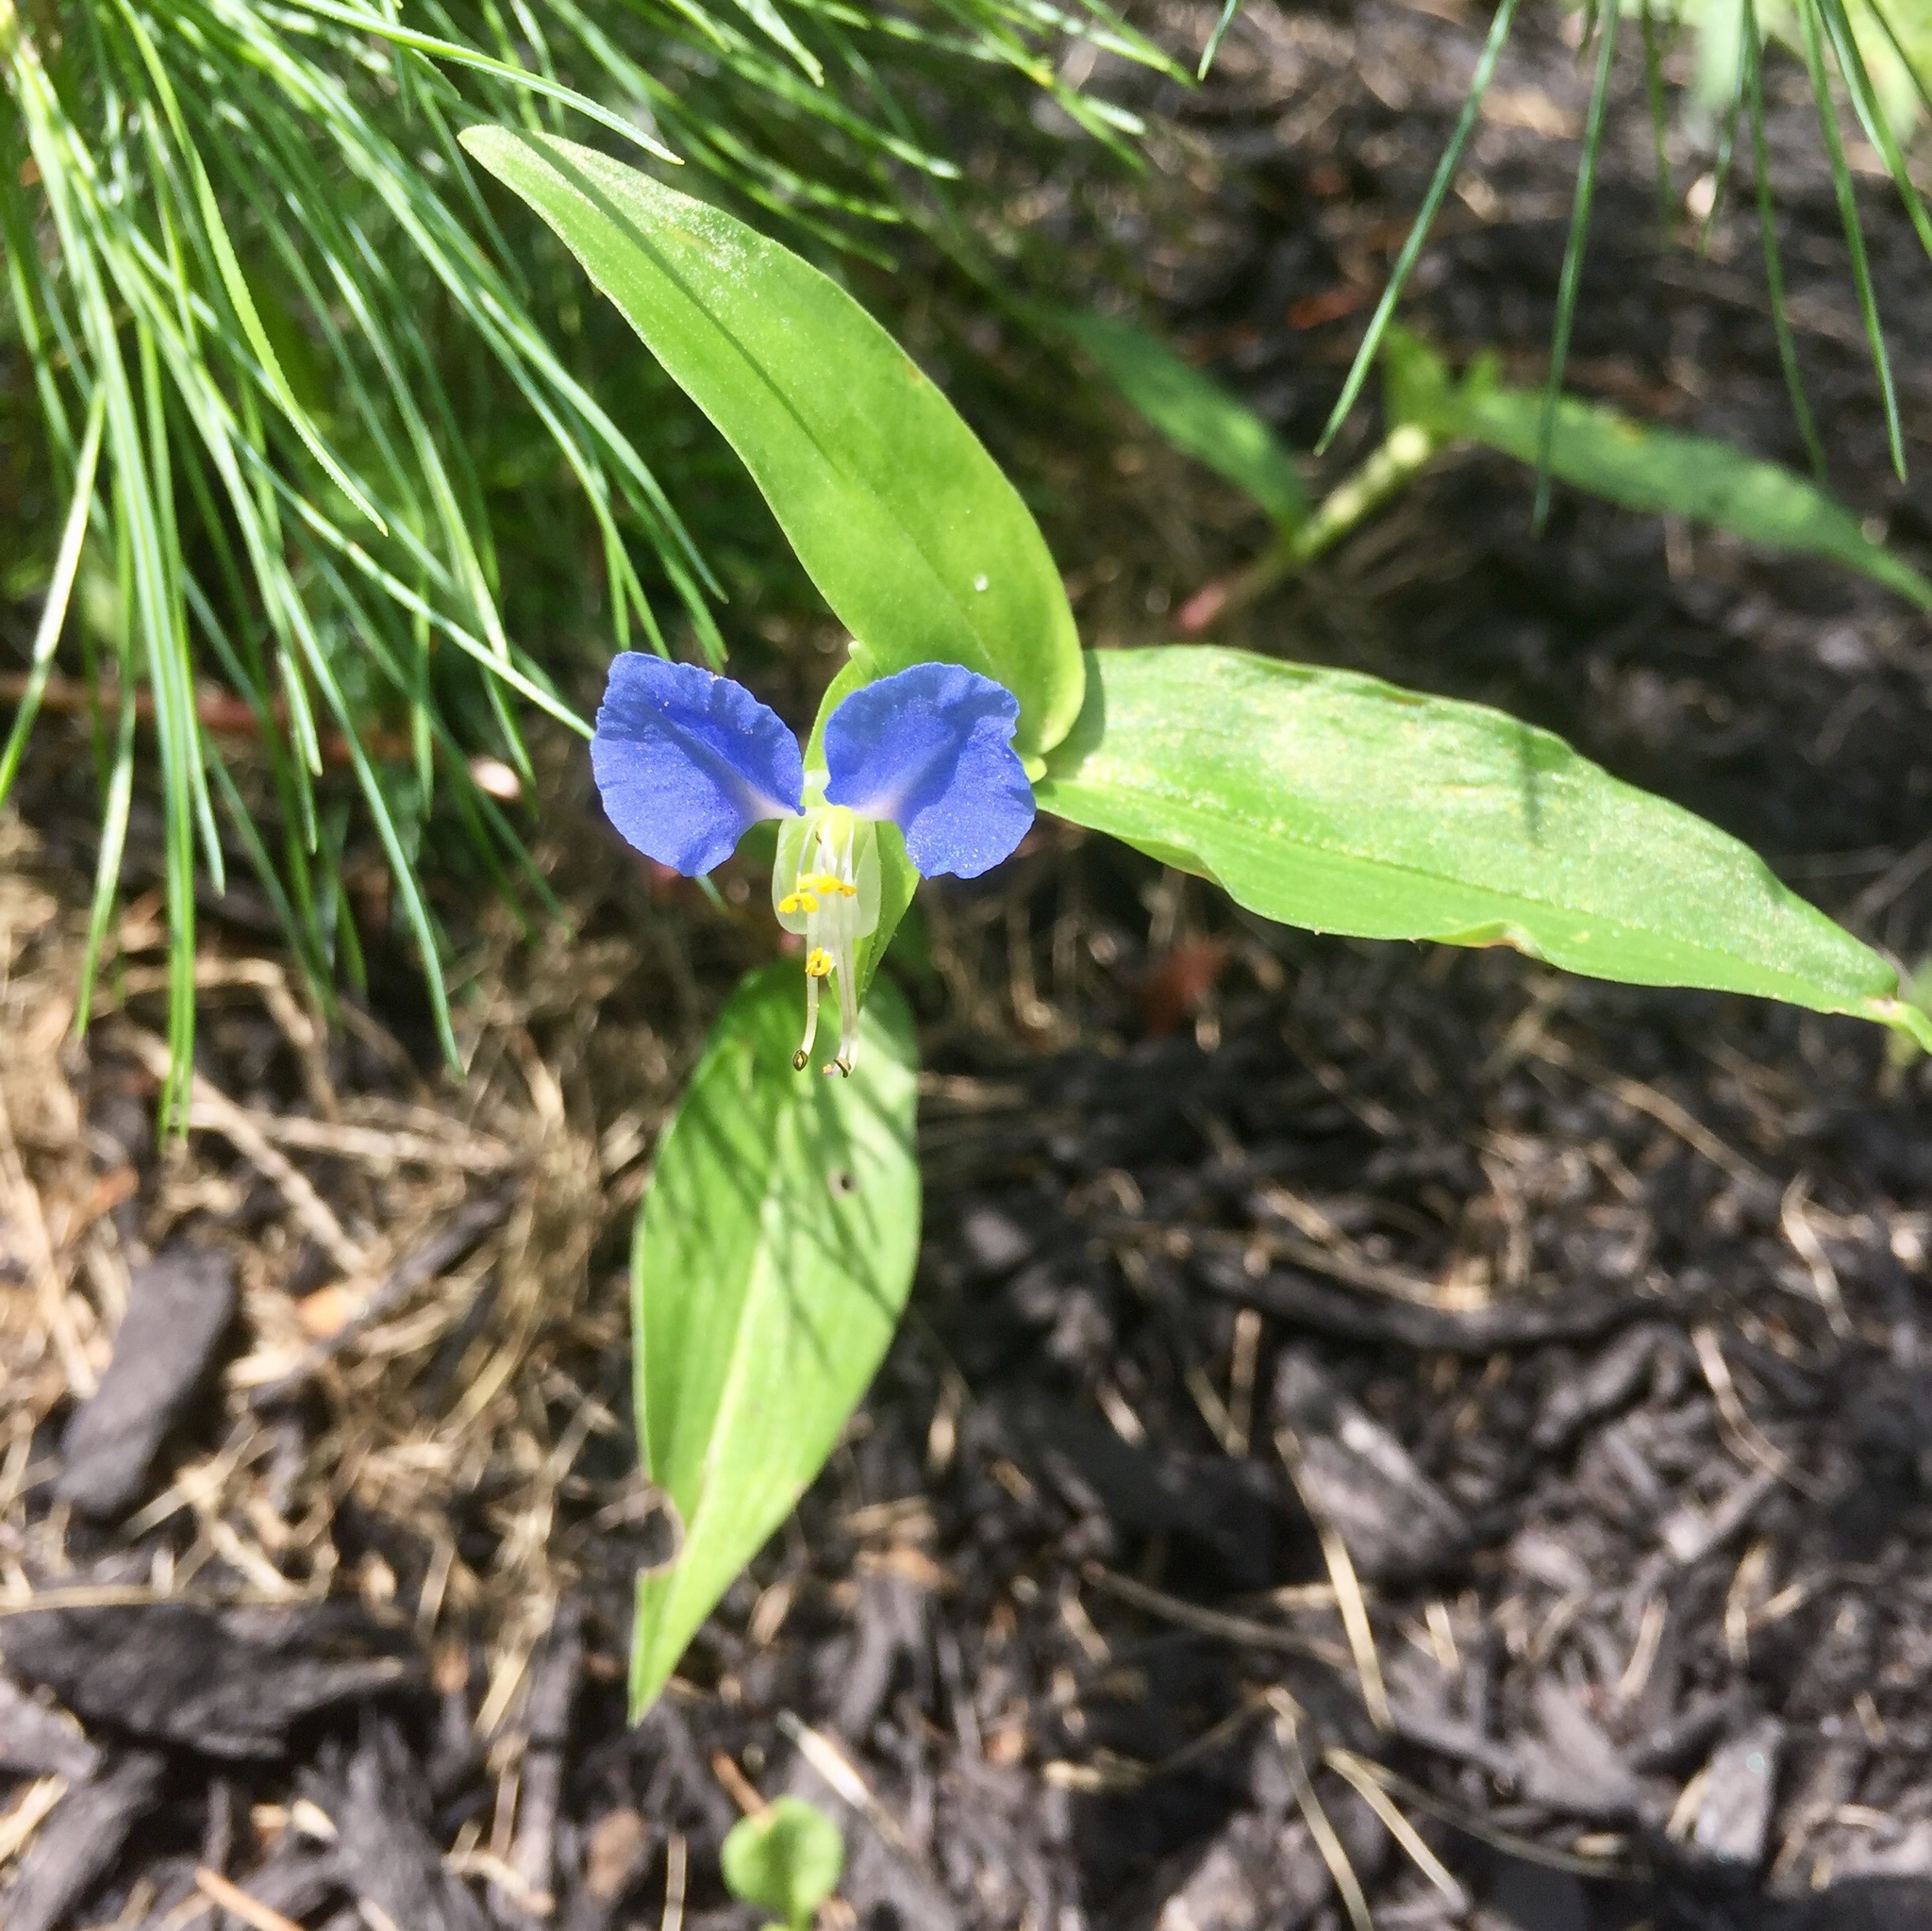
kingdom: Plantae
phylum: Tracheophyta
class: Liliopsida
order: Commelinales
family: Commelinaceae
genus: Commelina
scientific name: Commelina communis
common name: Asiatic dayflower
